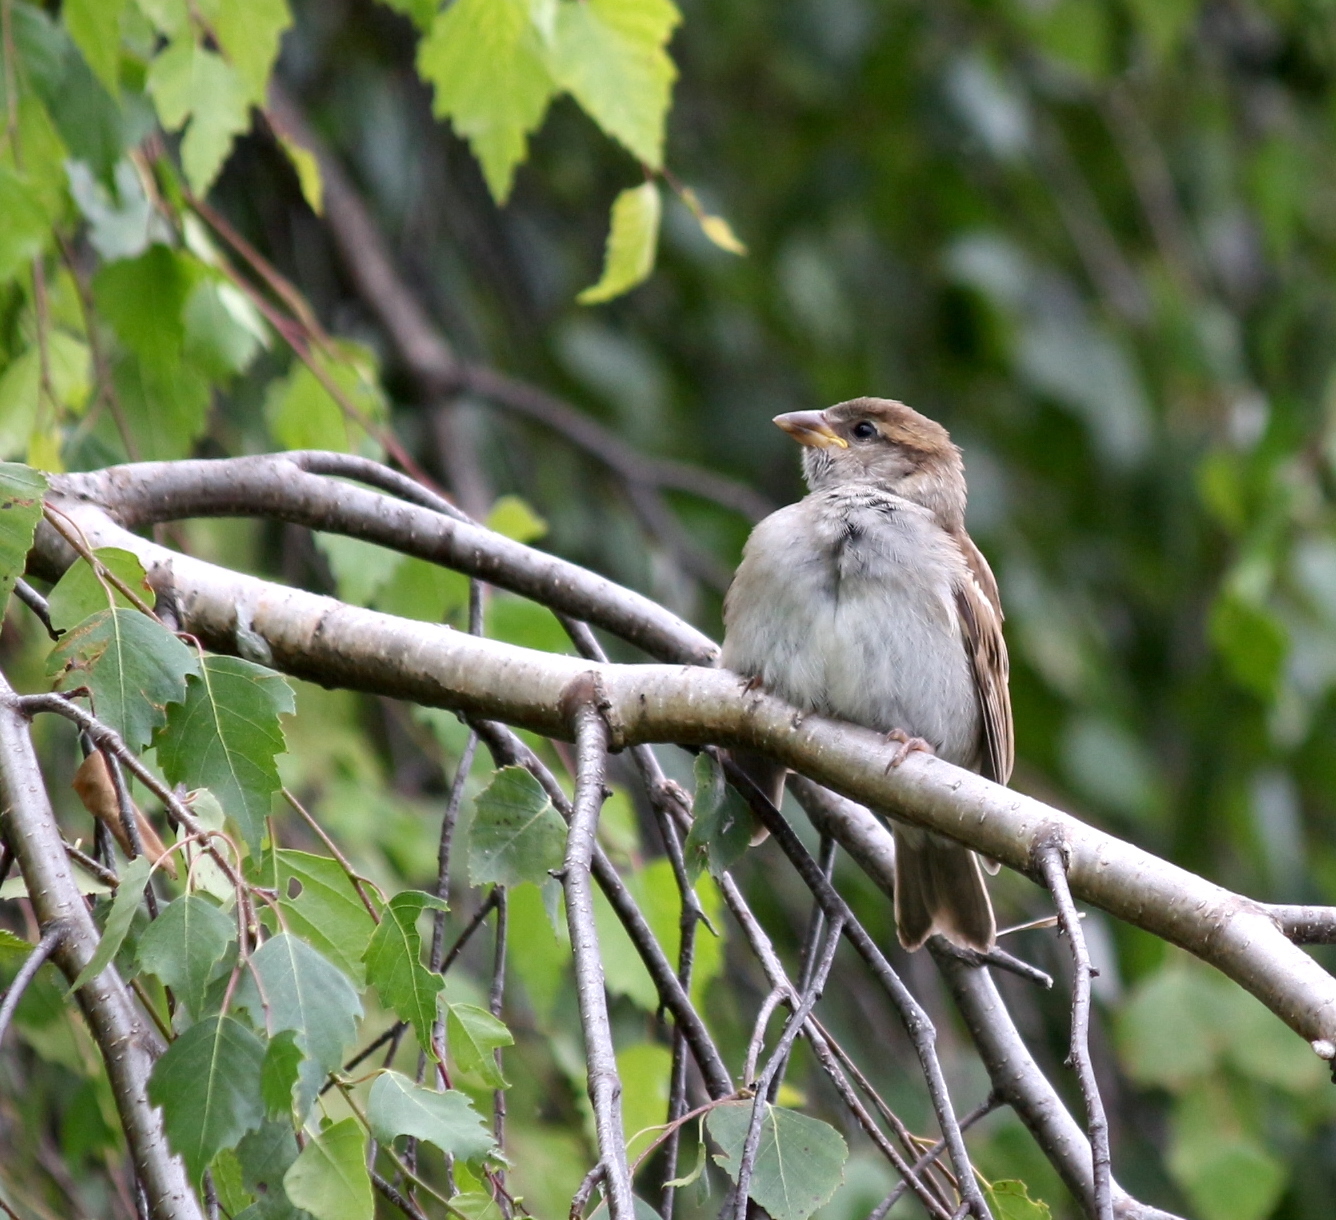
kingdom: Animalia
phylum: Chordata
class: Aves
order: Passeriformes
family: Passeridae
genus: Passer
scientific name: Passer domesticus
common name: House sparrow
